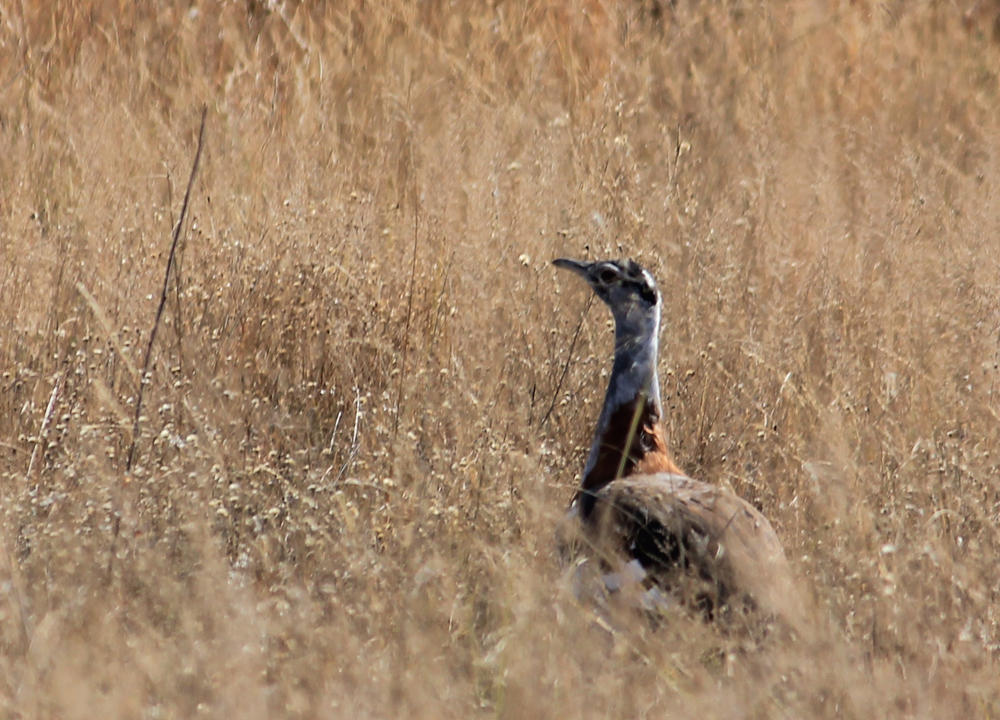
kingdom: Animalia
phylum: Chordata
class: Aves
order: Otidiformes
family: Otididae
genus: Neotis
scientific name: Neotis denhami
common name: Denham's bustard
